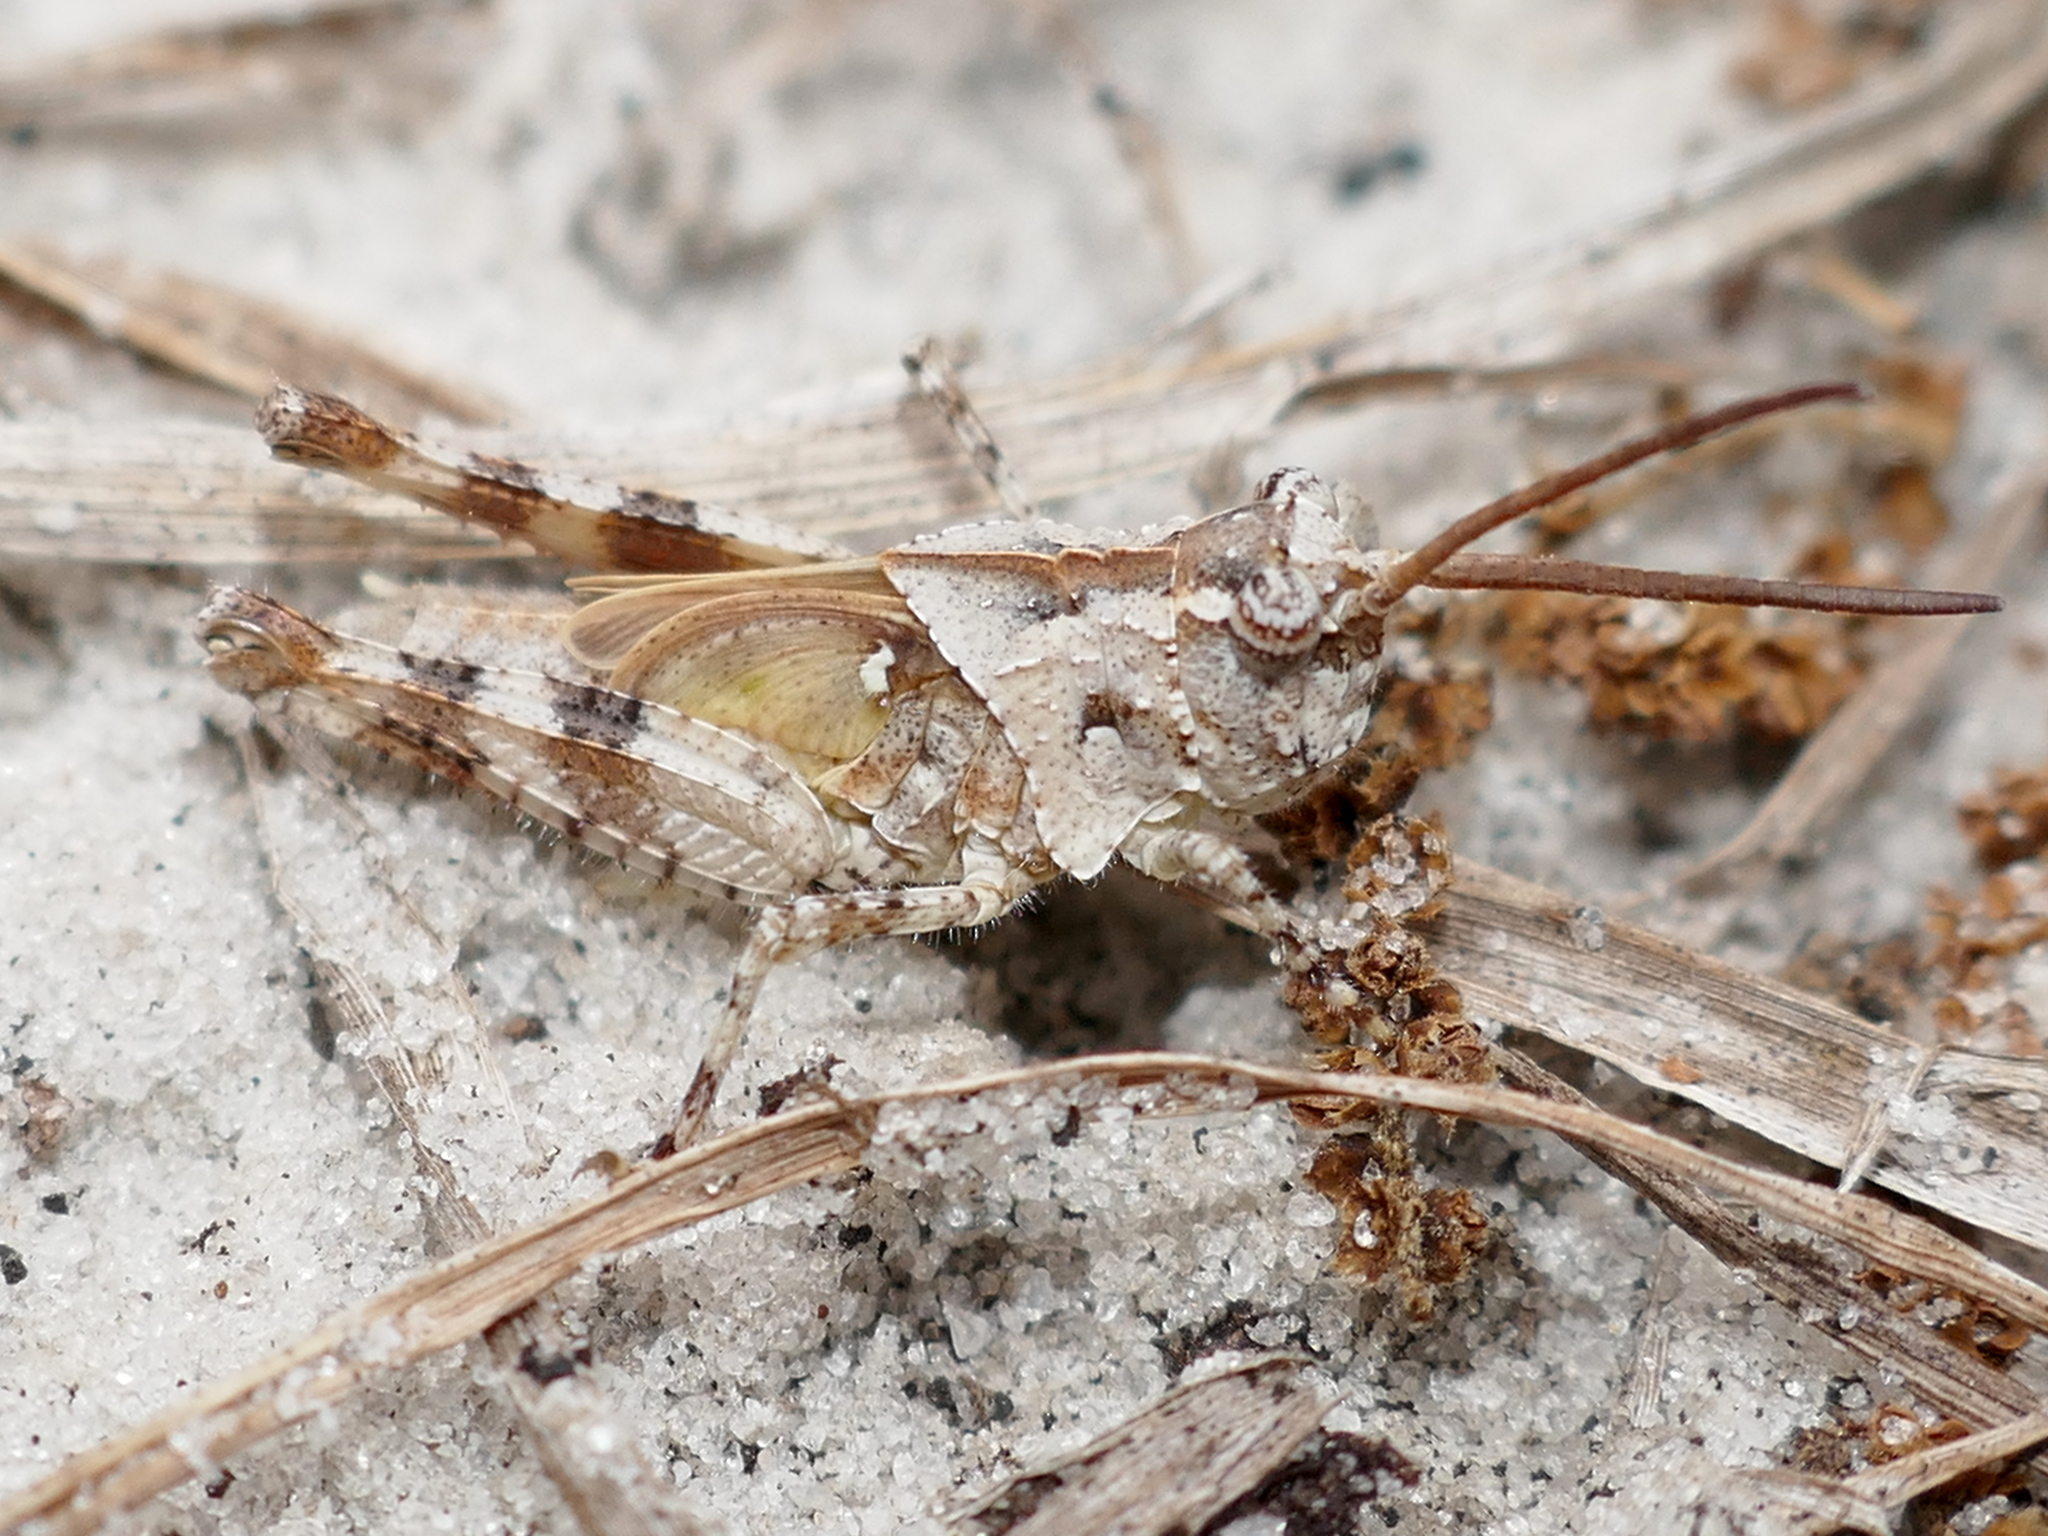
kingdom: Animalia
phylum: Arthropoda
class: Insecta
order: Orthoptera
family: Acrididae
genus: Psinidia
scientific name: Psinidia fenestralis
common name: Long-horned locust
